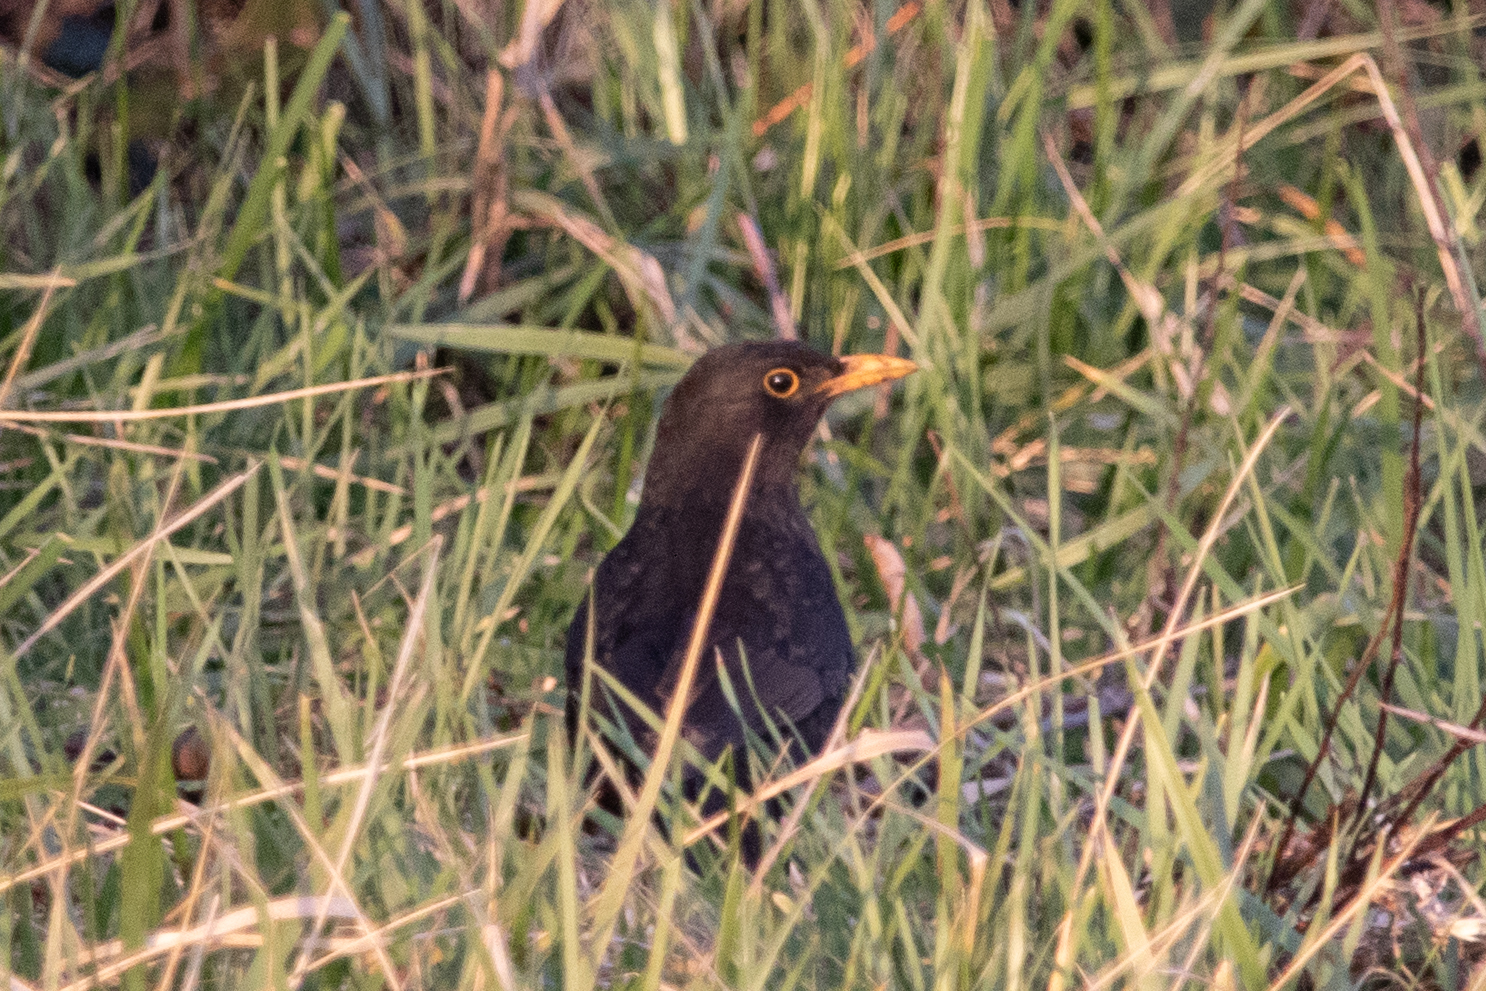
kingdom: Animalia
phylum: Chordata
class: Aves
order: Passeriformes
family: Turdidae
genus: Turdus
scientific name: Turdus merula
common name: Common blackbird
